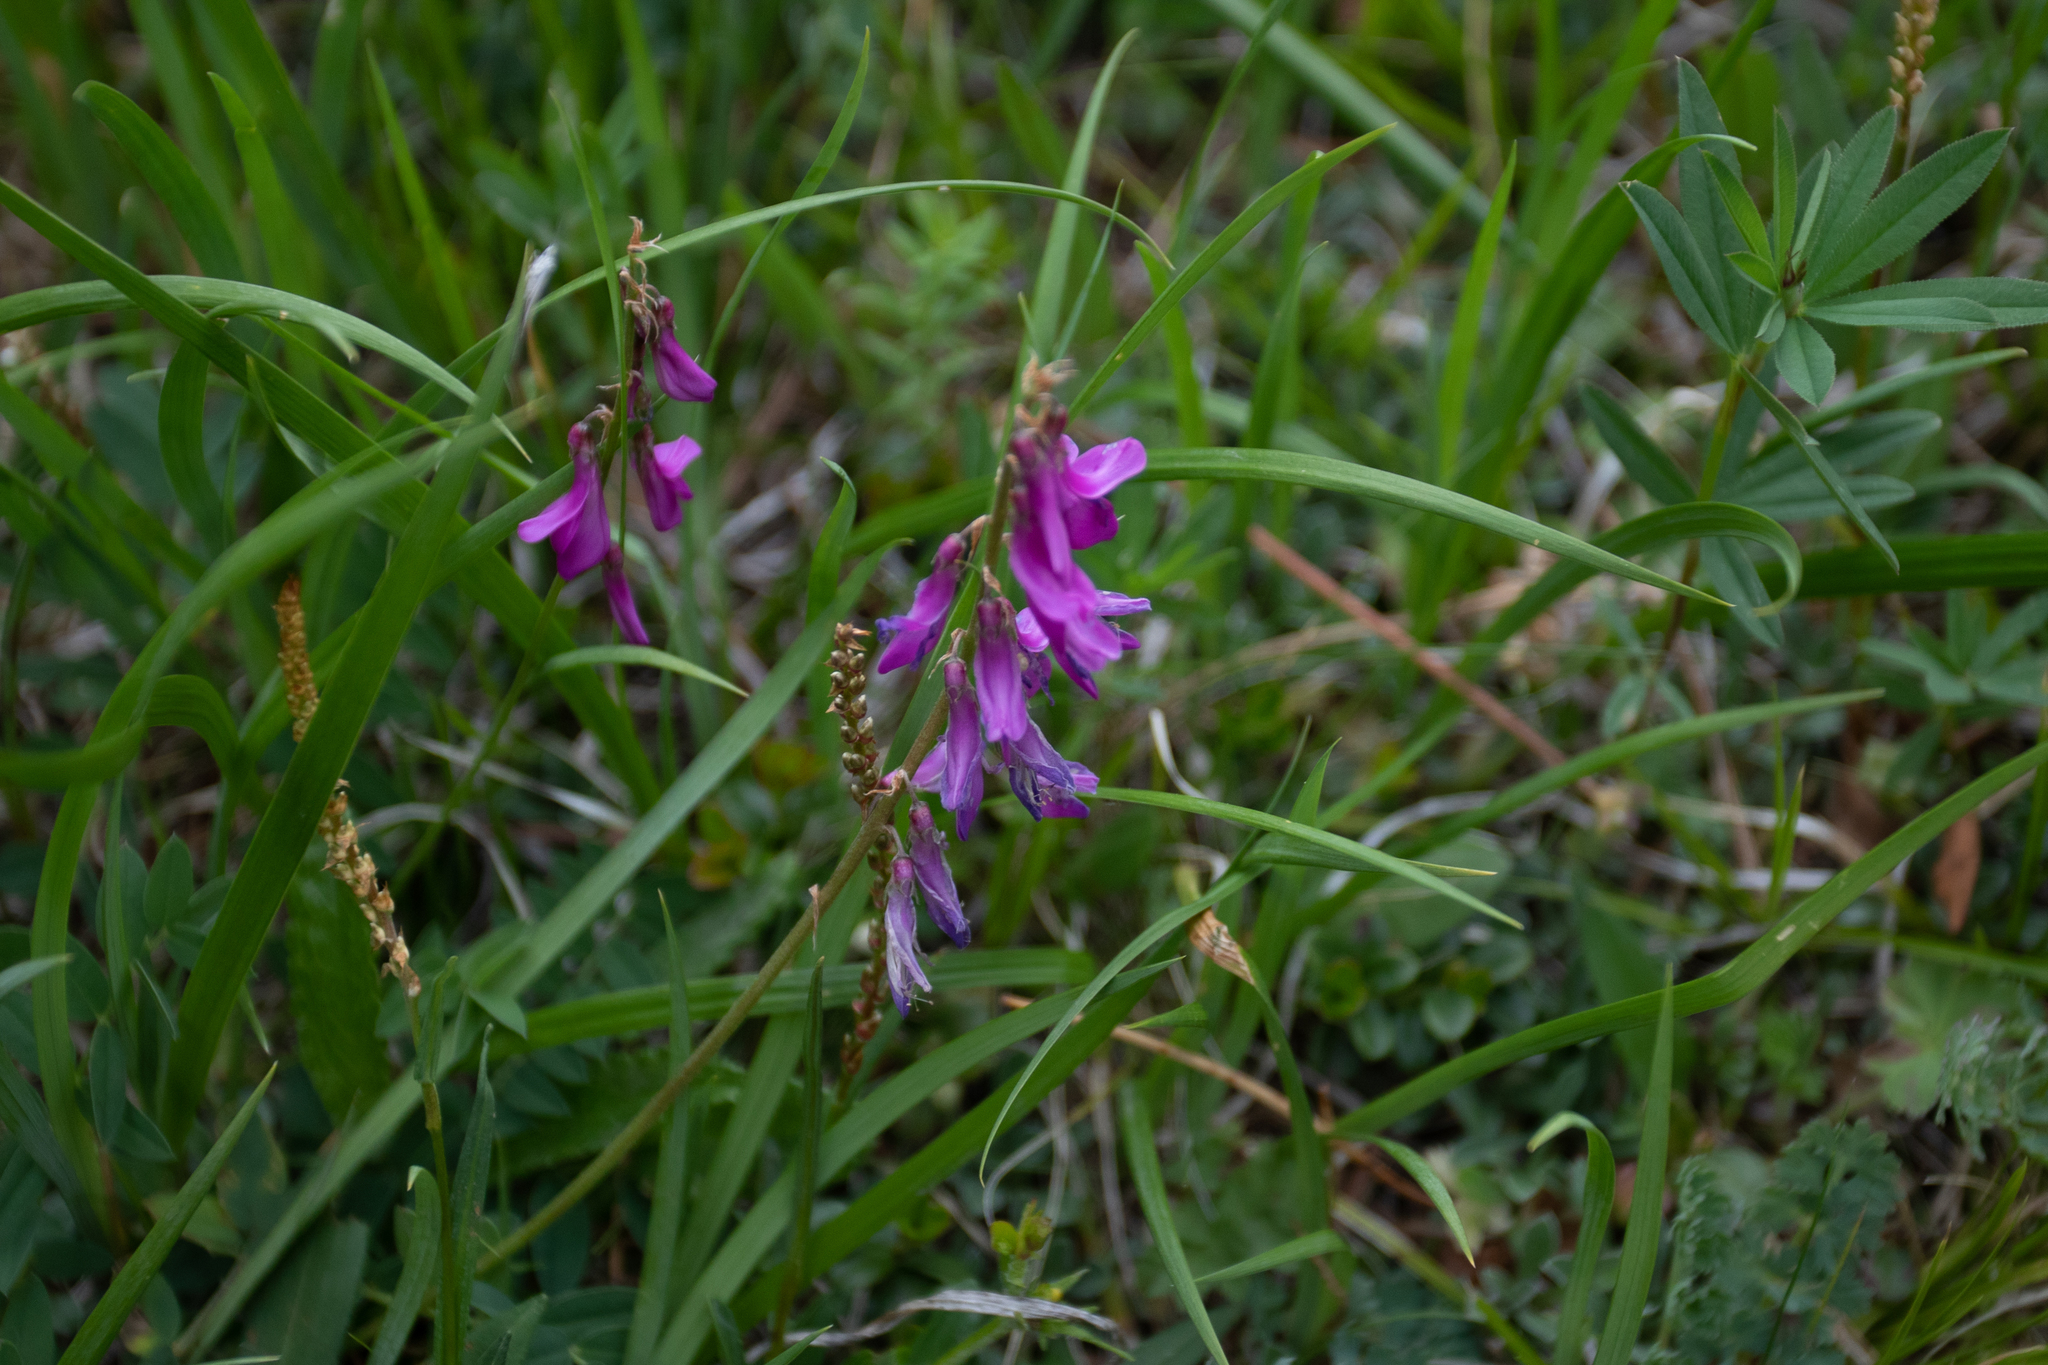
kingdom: Plantae
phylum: Tracheophyta
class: Magnoliopsida
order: Caryophyllales
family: Polygonaceae
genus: Bistorta
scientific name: Bistorta vivipara
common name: Alpine bistort
